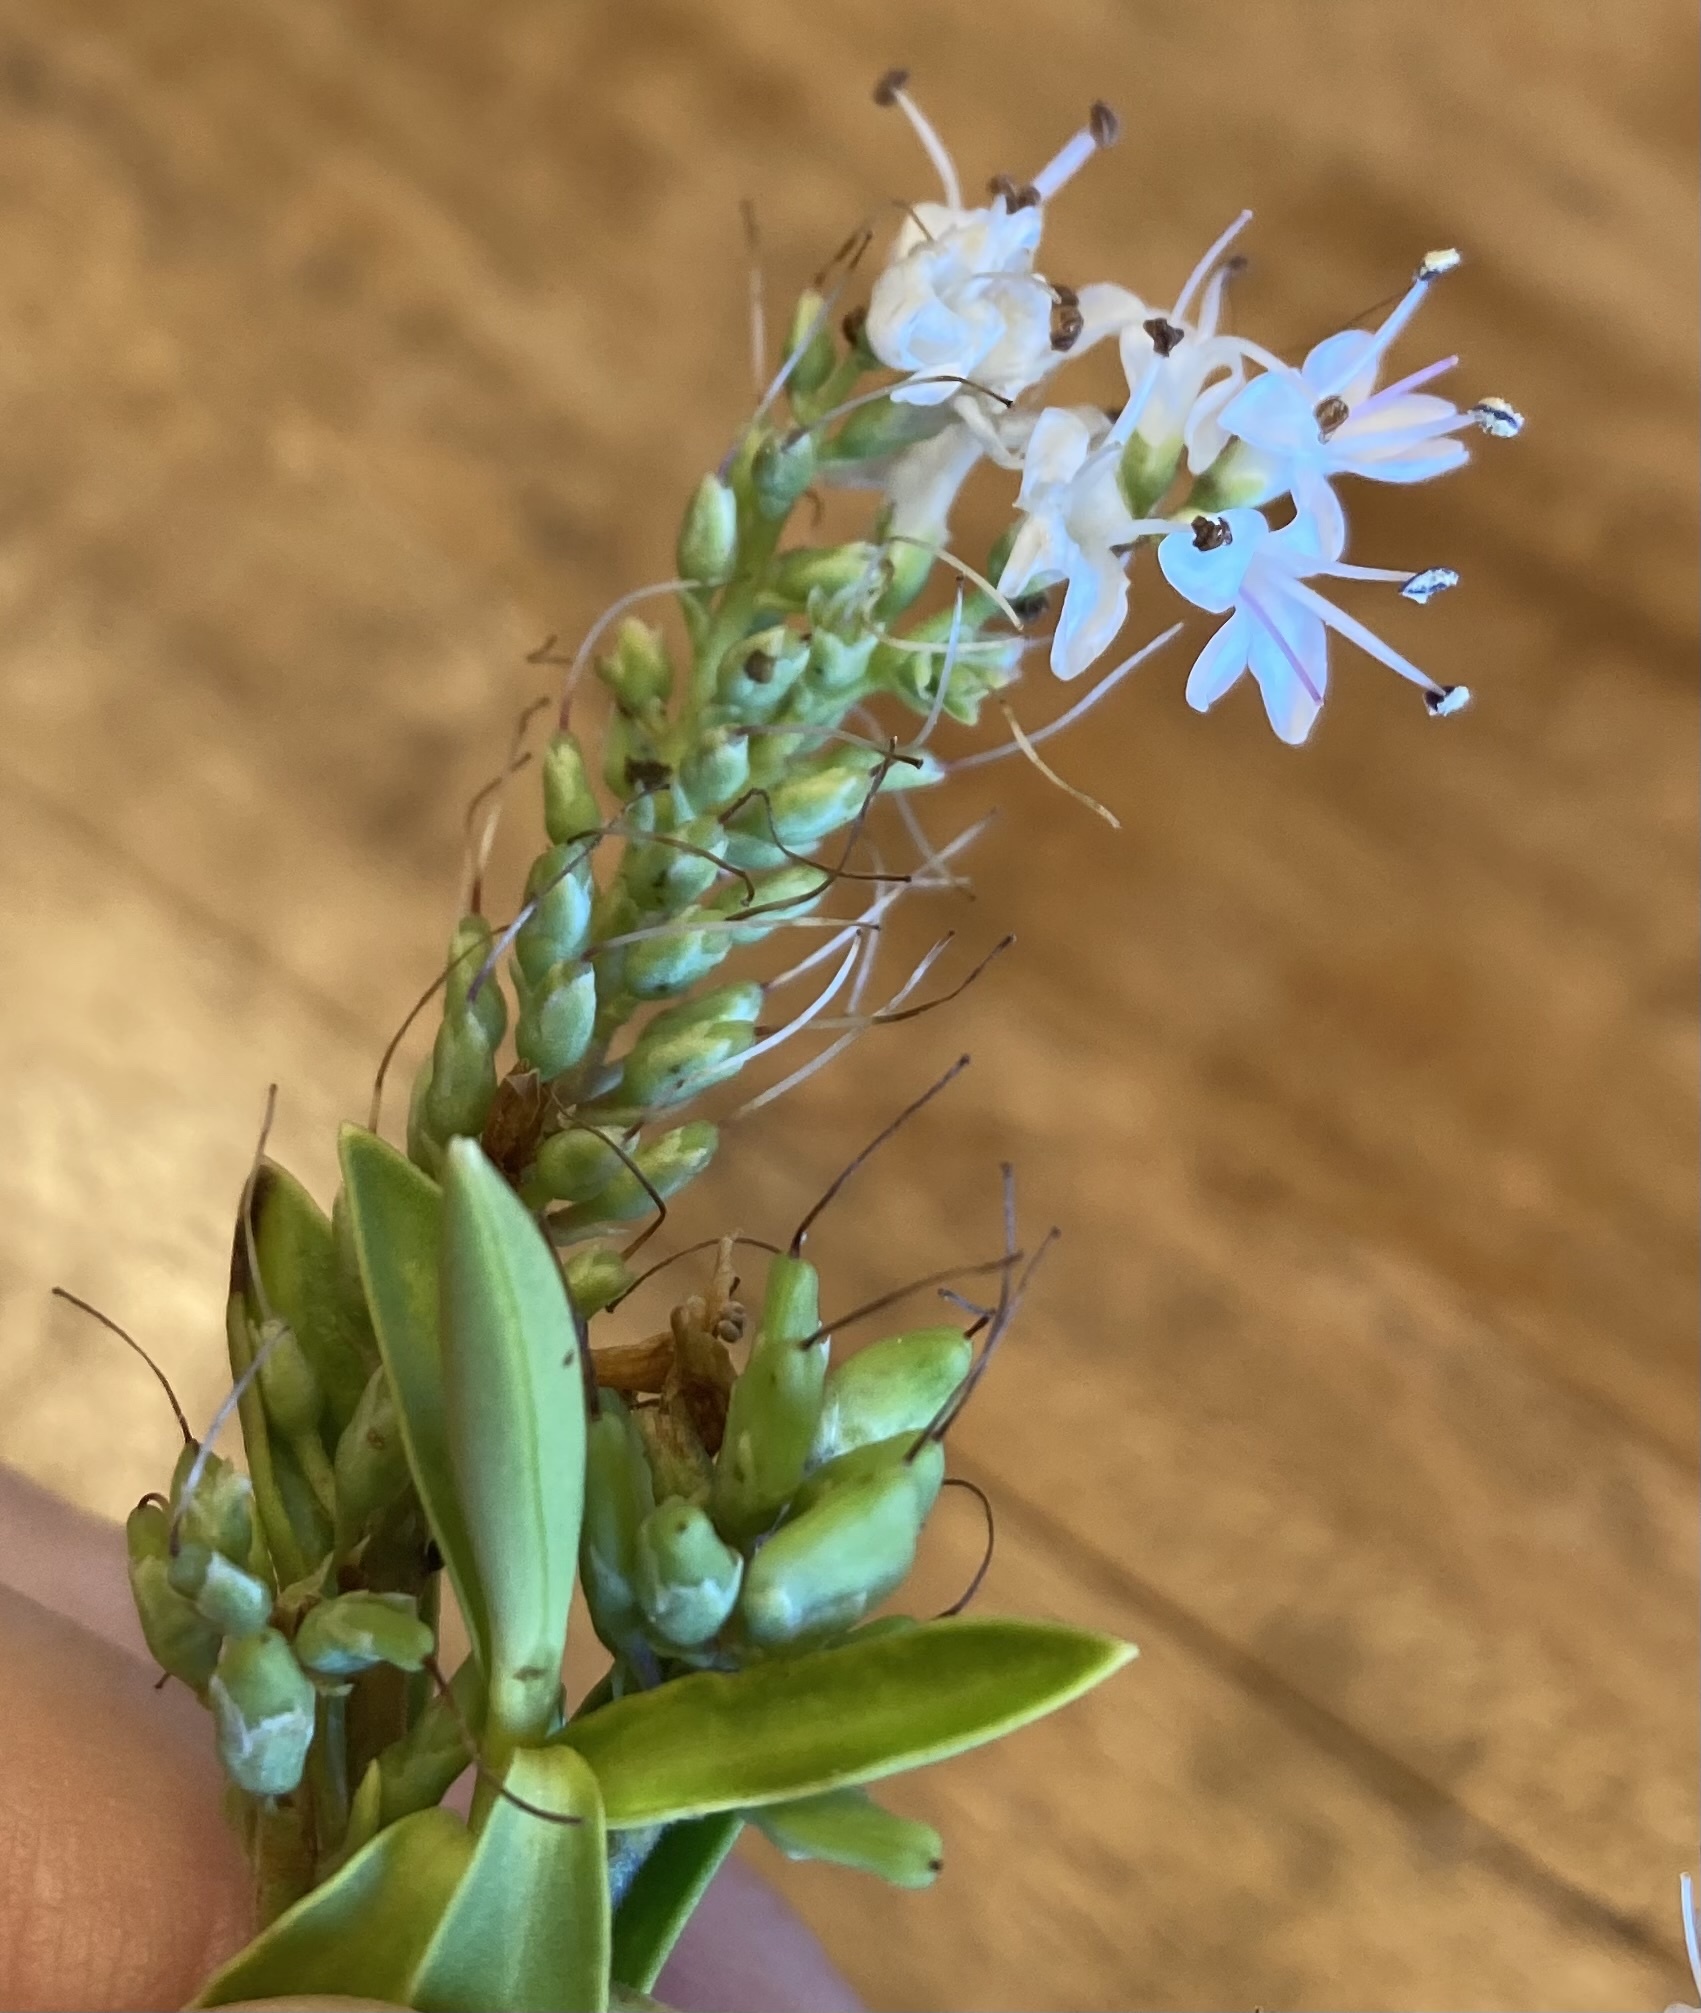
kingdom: Plantae
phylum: Tracheophyta
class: Magnoliopsida
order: Lamiales
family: Plantaginaceae
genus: Veronica
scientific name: Veronica brachysiphon
